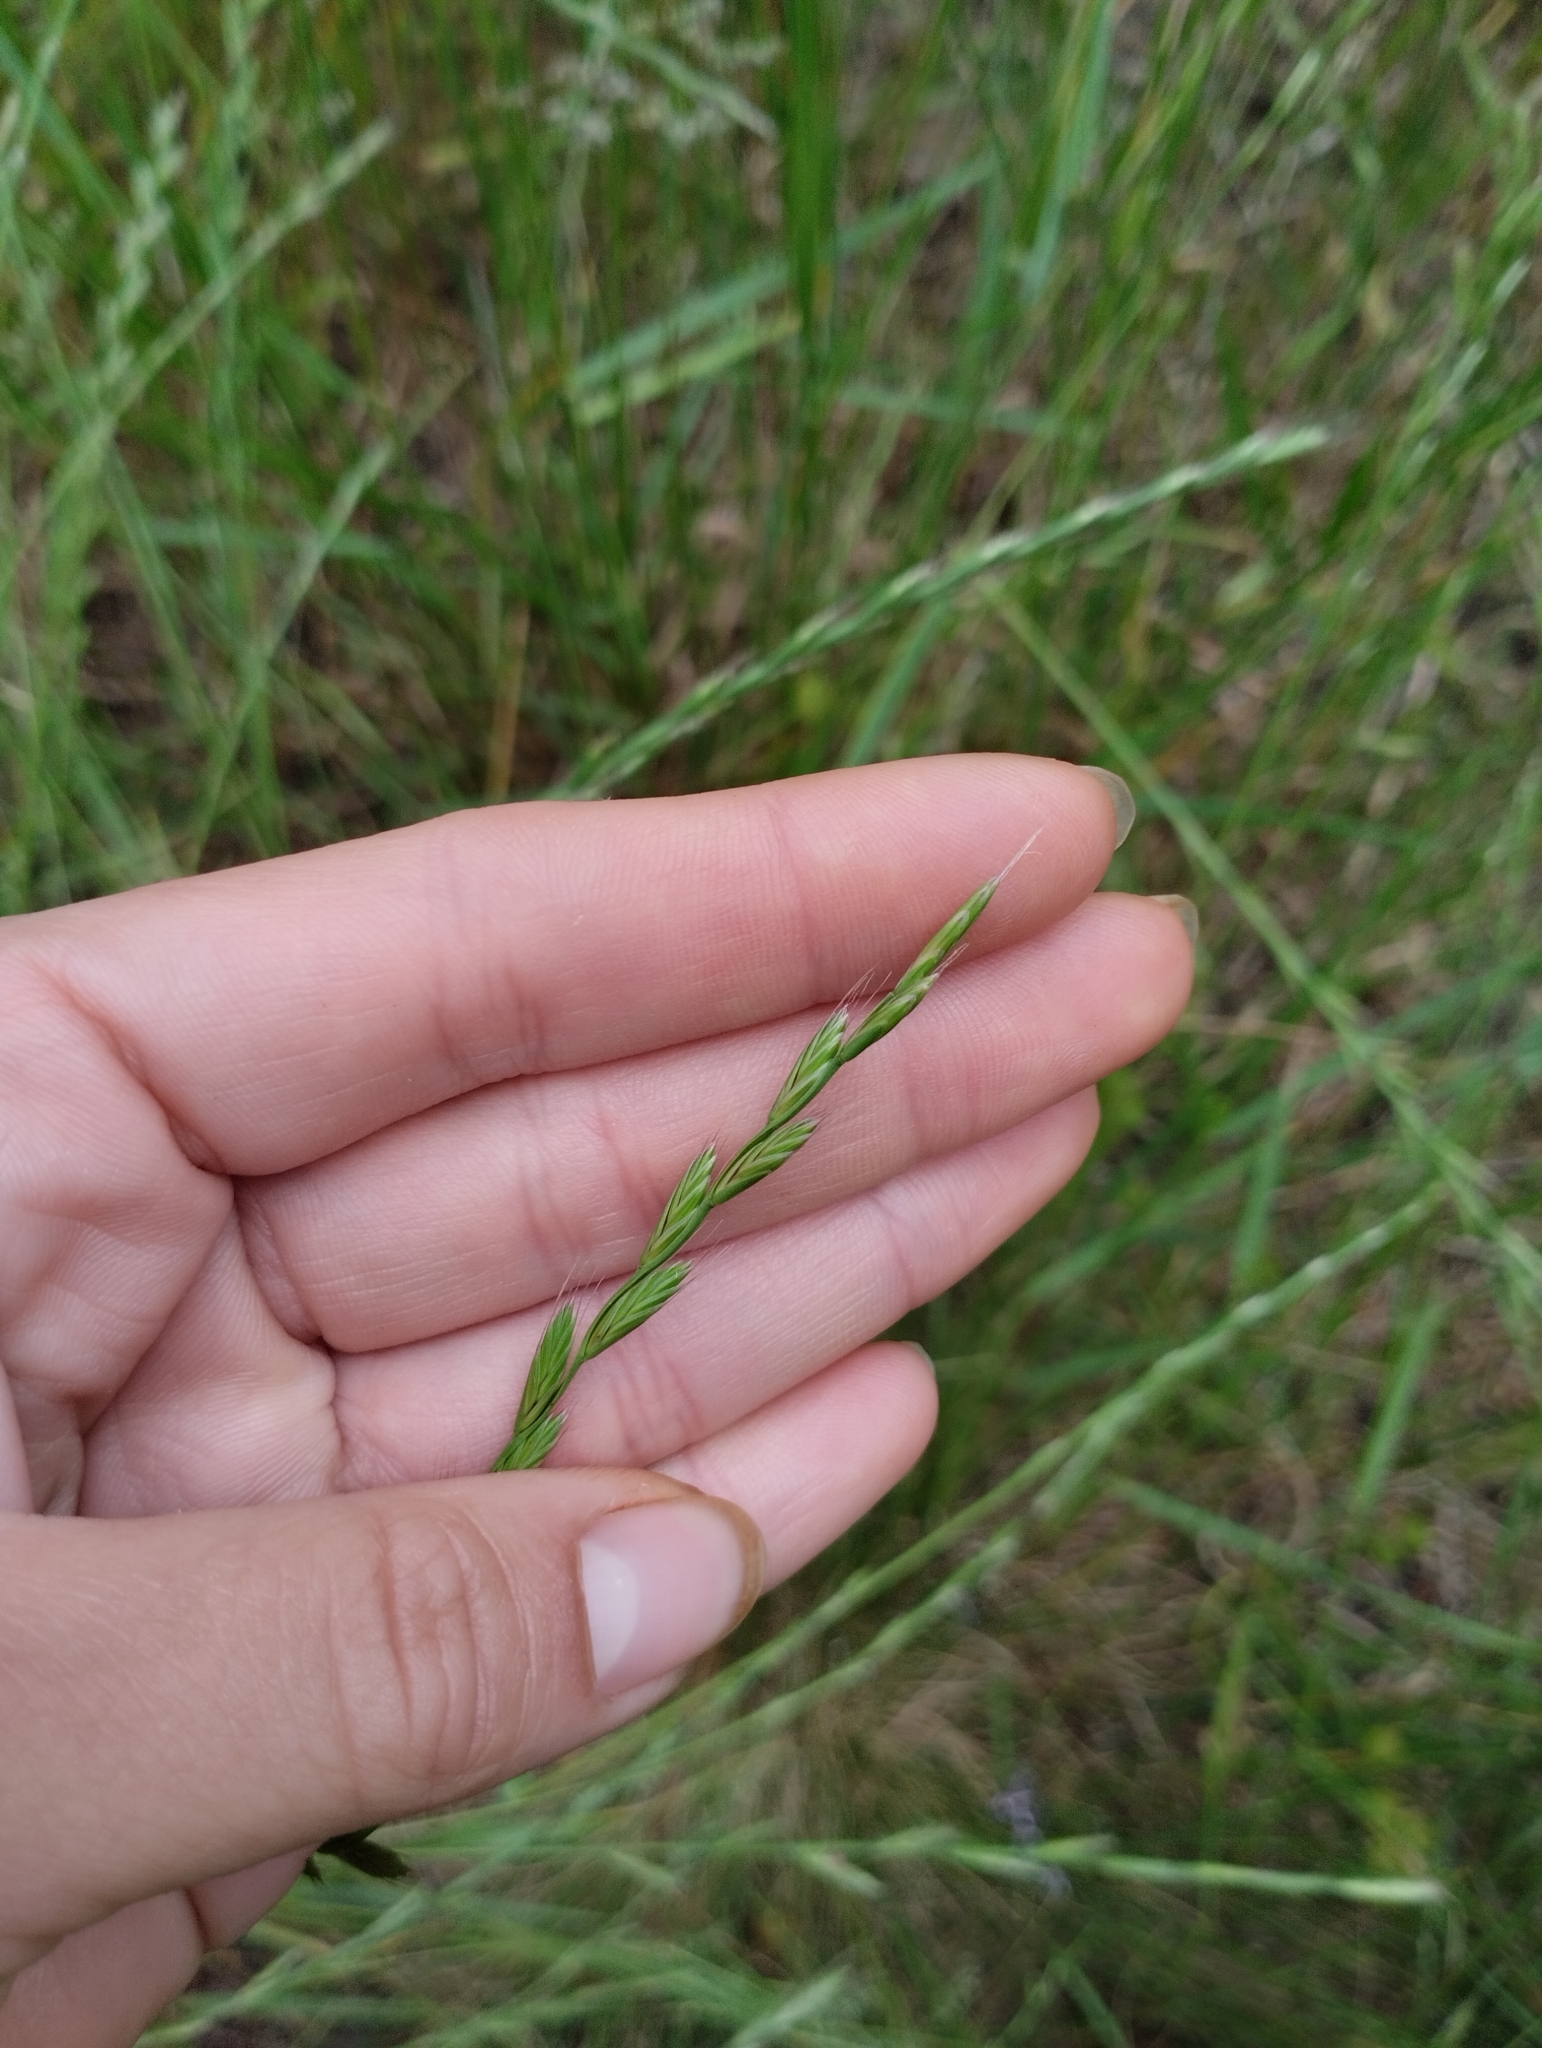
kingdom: Plantae
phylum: Tracheophyta
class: Liliopsida
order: Poales
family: Poaceae
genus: Lolium
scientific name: Lolium multiflorum
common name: Annual ryegrass
